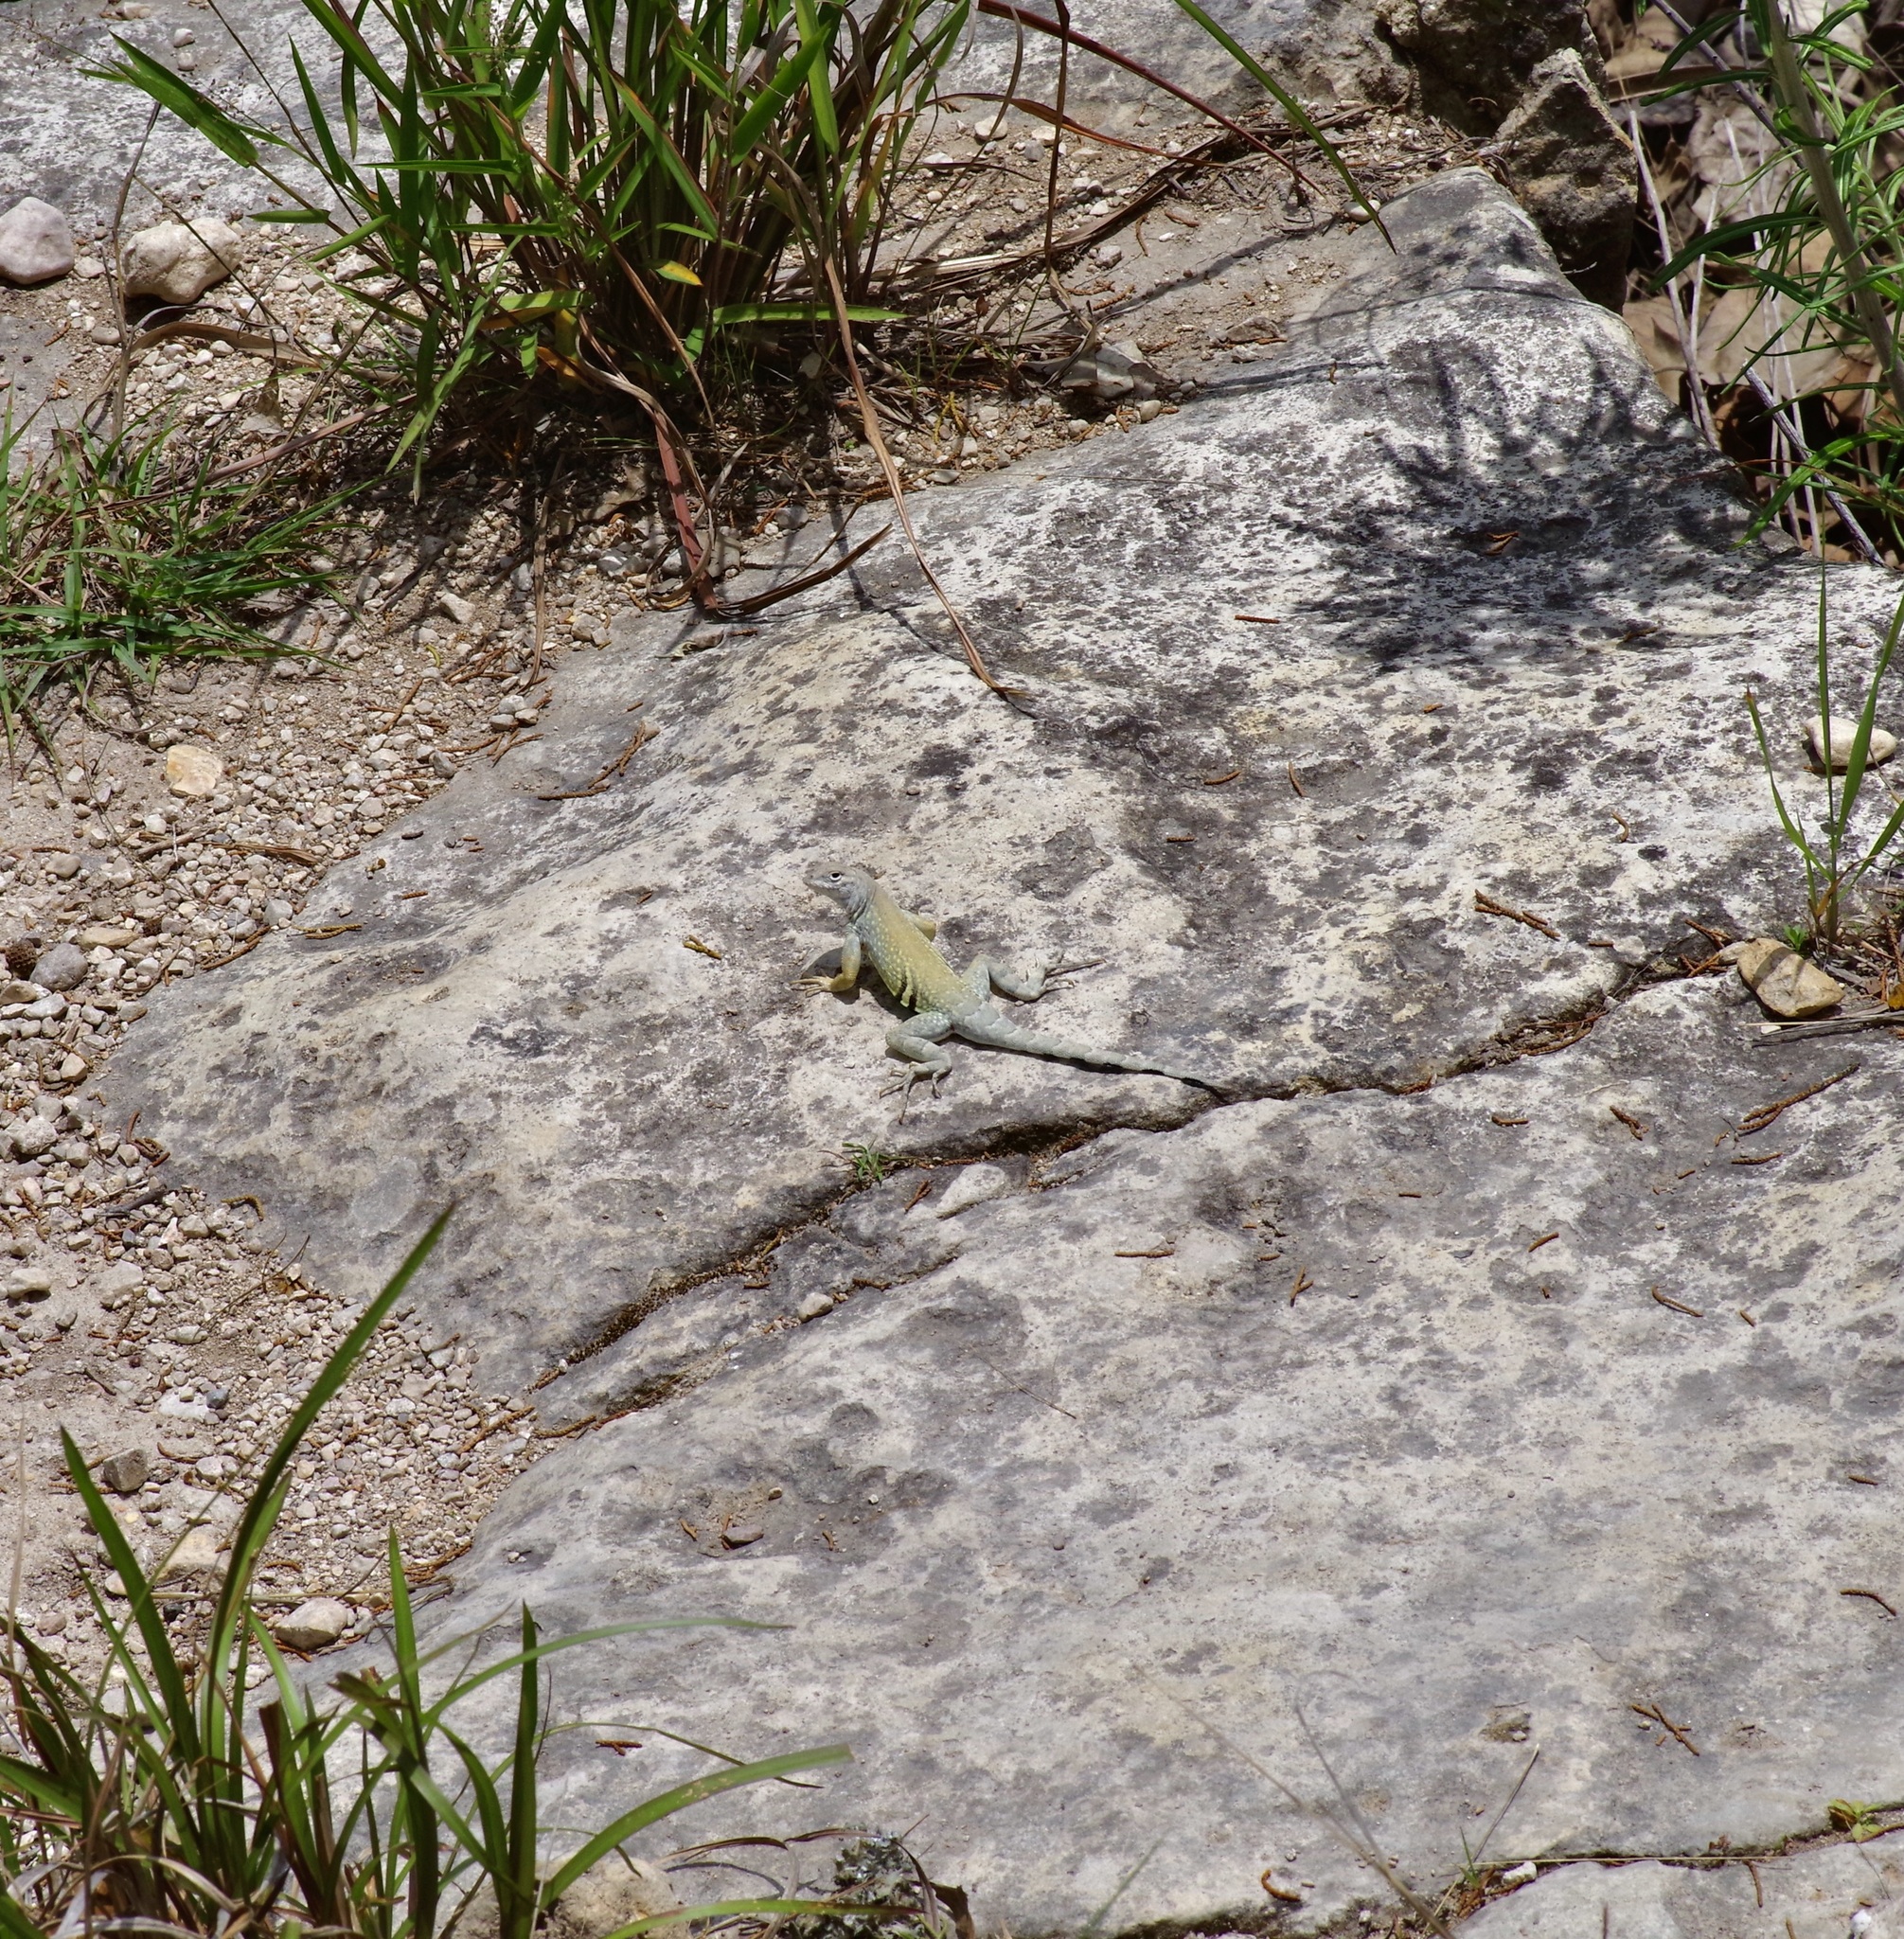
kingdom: Animalia
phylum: Chordata
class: Squamata
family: Phrynosomatidae
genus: Cophosaurus
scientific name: Cophosaurus texanus
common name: Greater earless lizard
